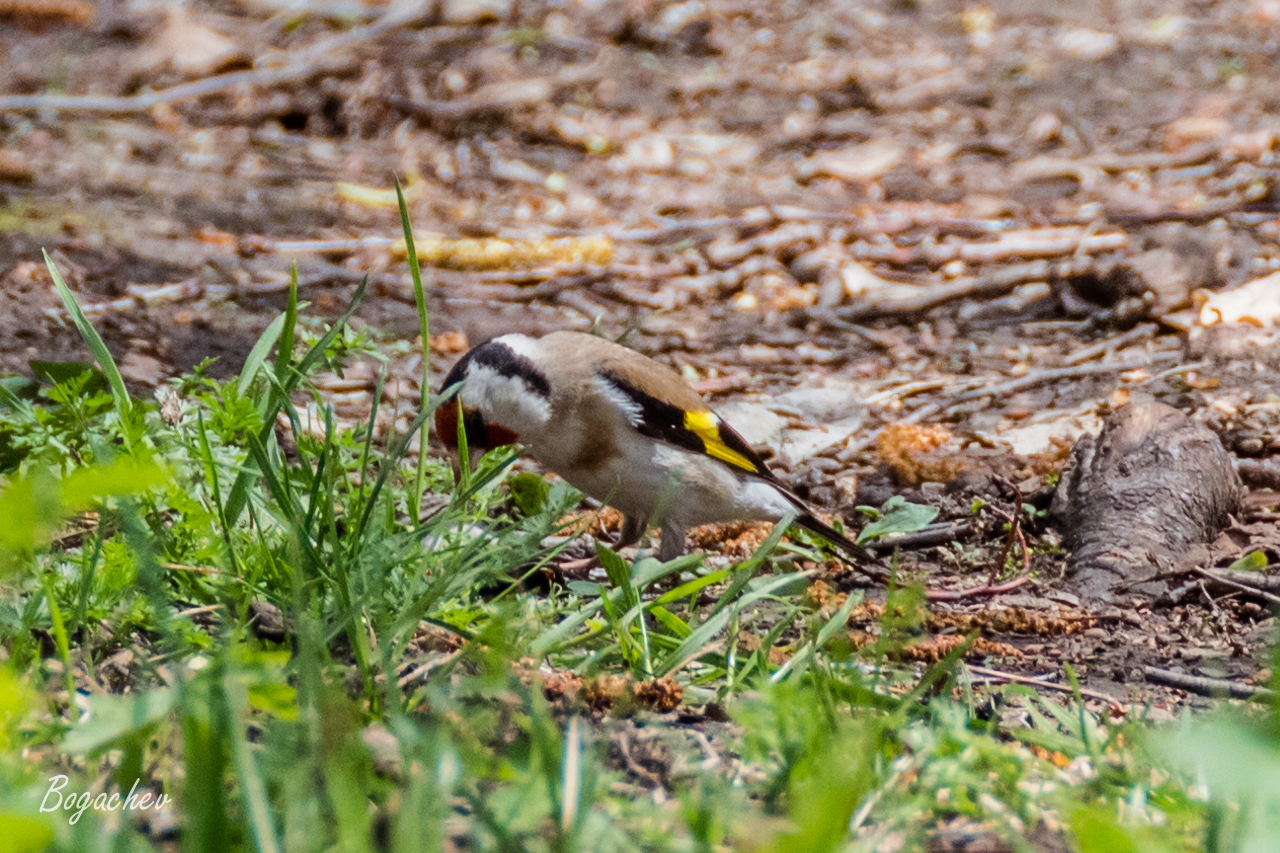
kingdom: Animalia
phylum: Chordata
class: Aves
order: Passeriformes
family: Fringillidae
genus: Carduelis
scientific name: Carduelis carduelis
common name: European goldfinch
